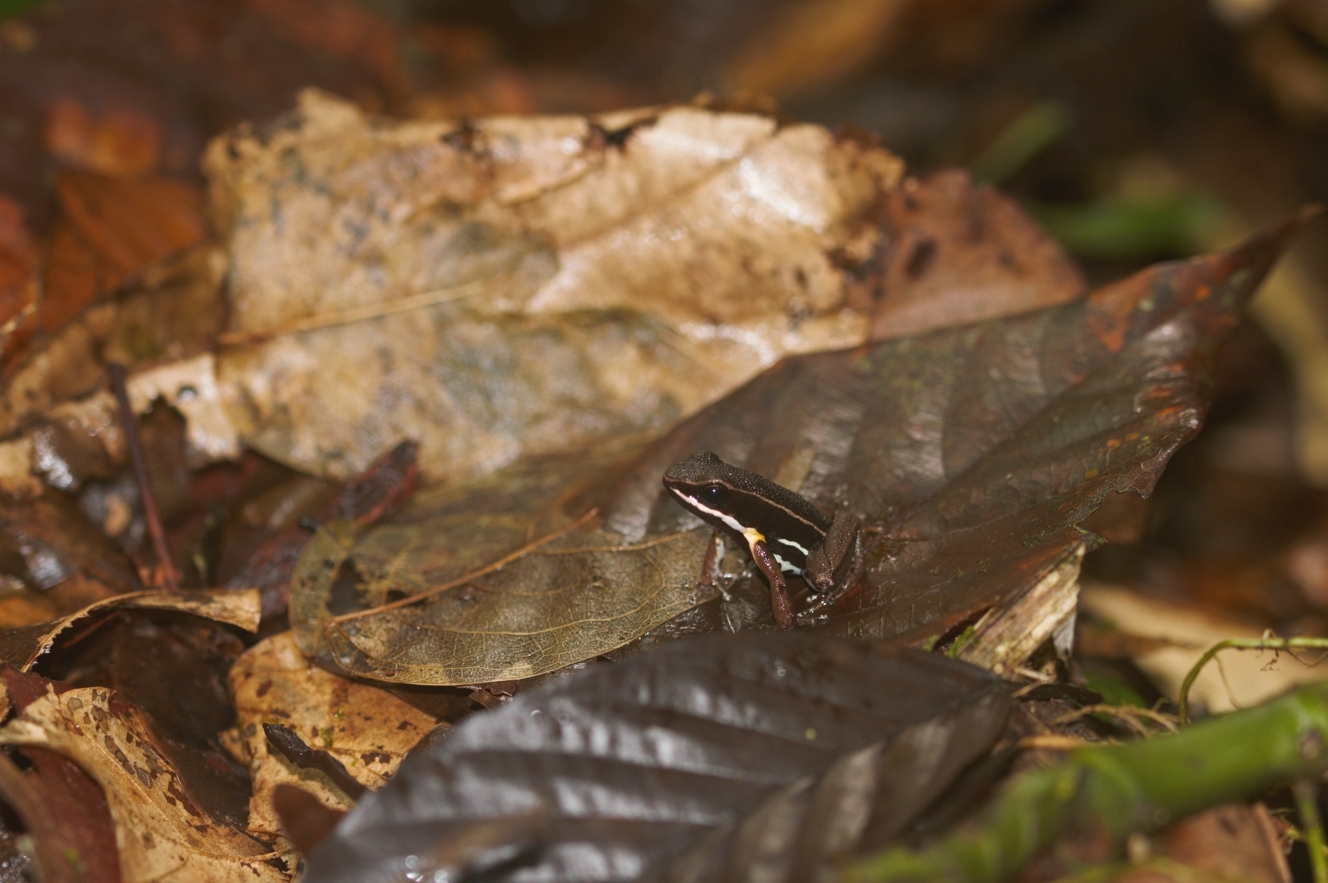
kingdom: Animalia
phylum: Chordata
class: Amphibia
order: Anura
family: Aromobatidae
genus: Allobates
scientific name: Allobates femoralis
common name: Brilliant-thighed poison frog
